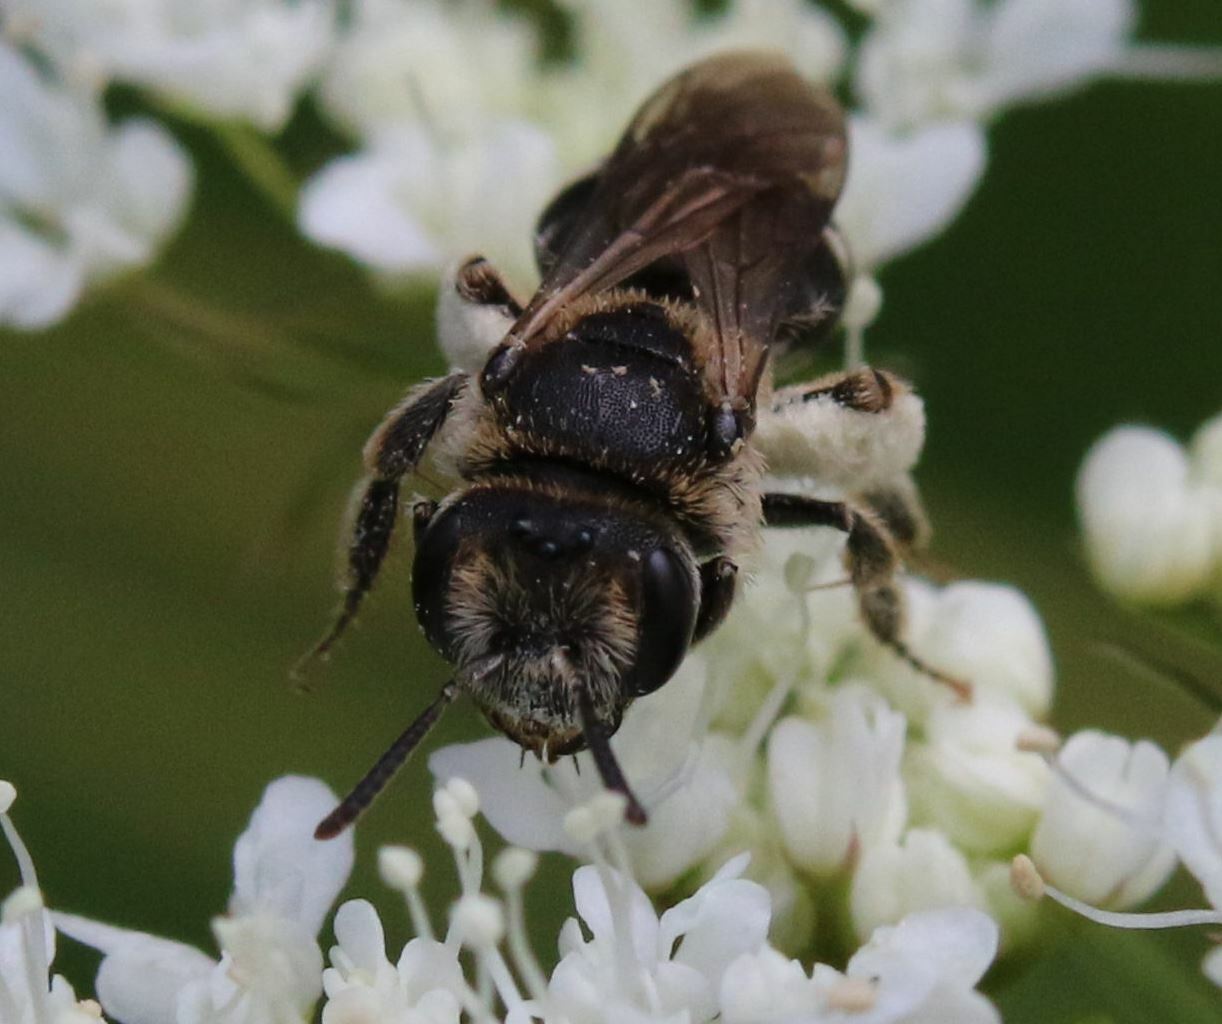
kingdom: Animalia
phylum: Arthropoda
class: Insecta
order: Hymenoptera
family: Andrenidae
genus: Andrena
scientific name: Andrena colletiformis
